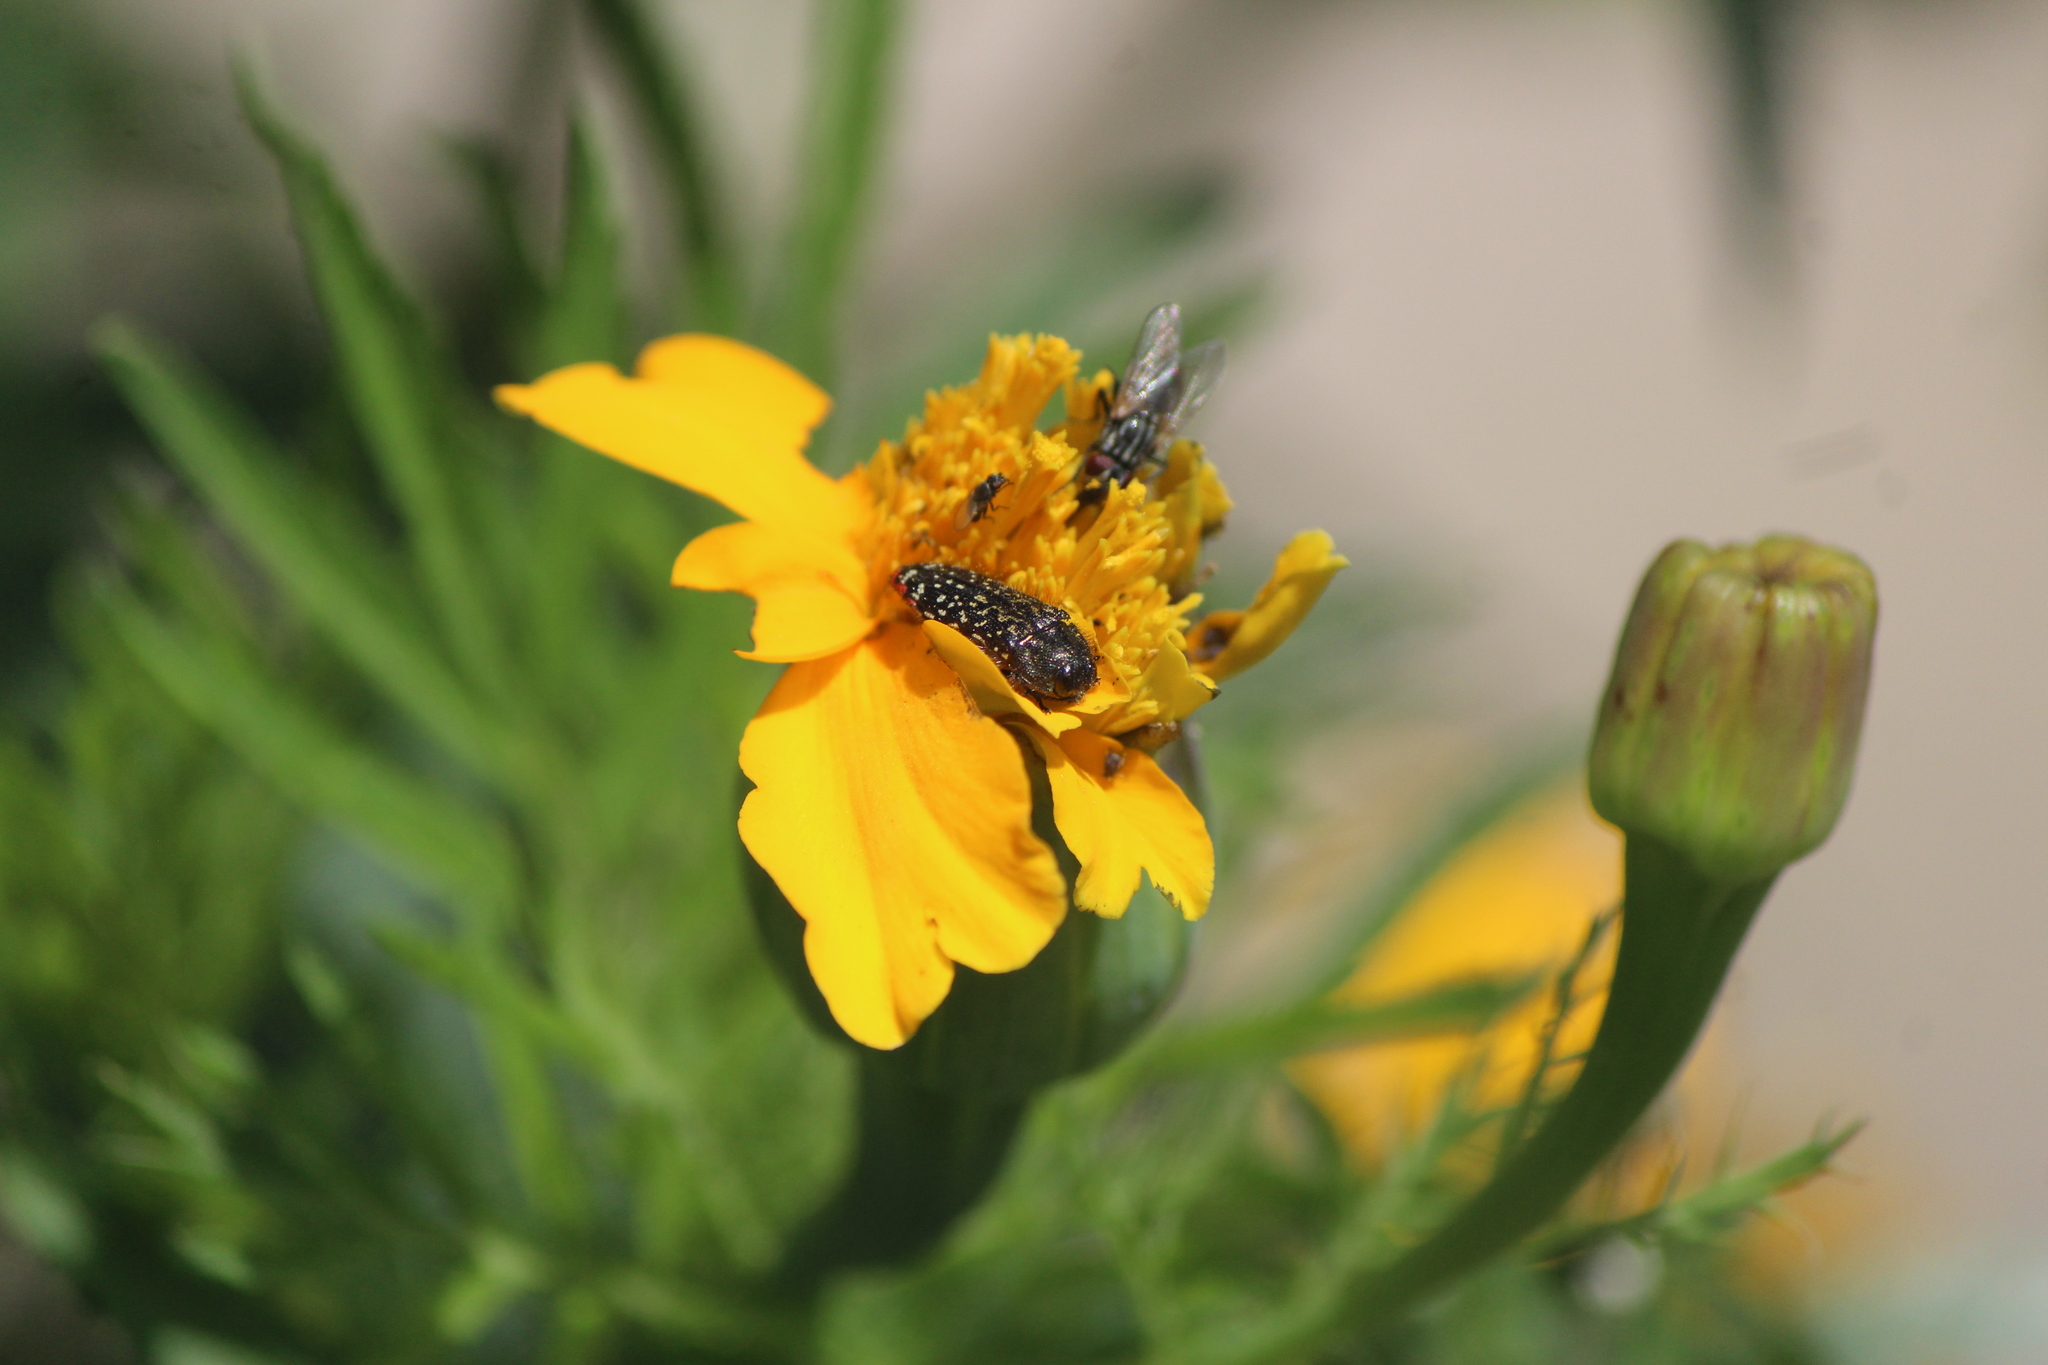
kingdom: Animalia
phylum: Arthropoda
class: Insecta
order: Coleoptera
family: Buprestidae
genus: Acmaeodera
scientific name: Acmaeodera haemorrhoa
